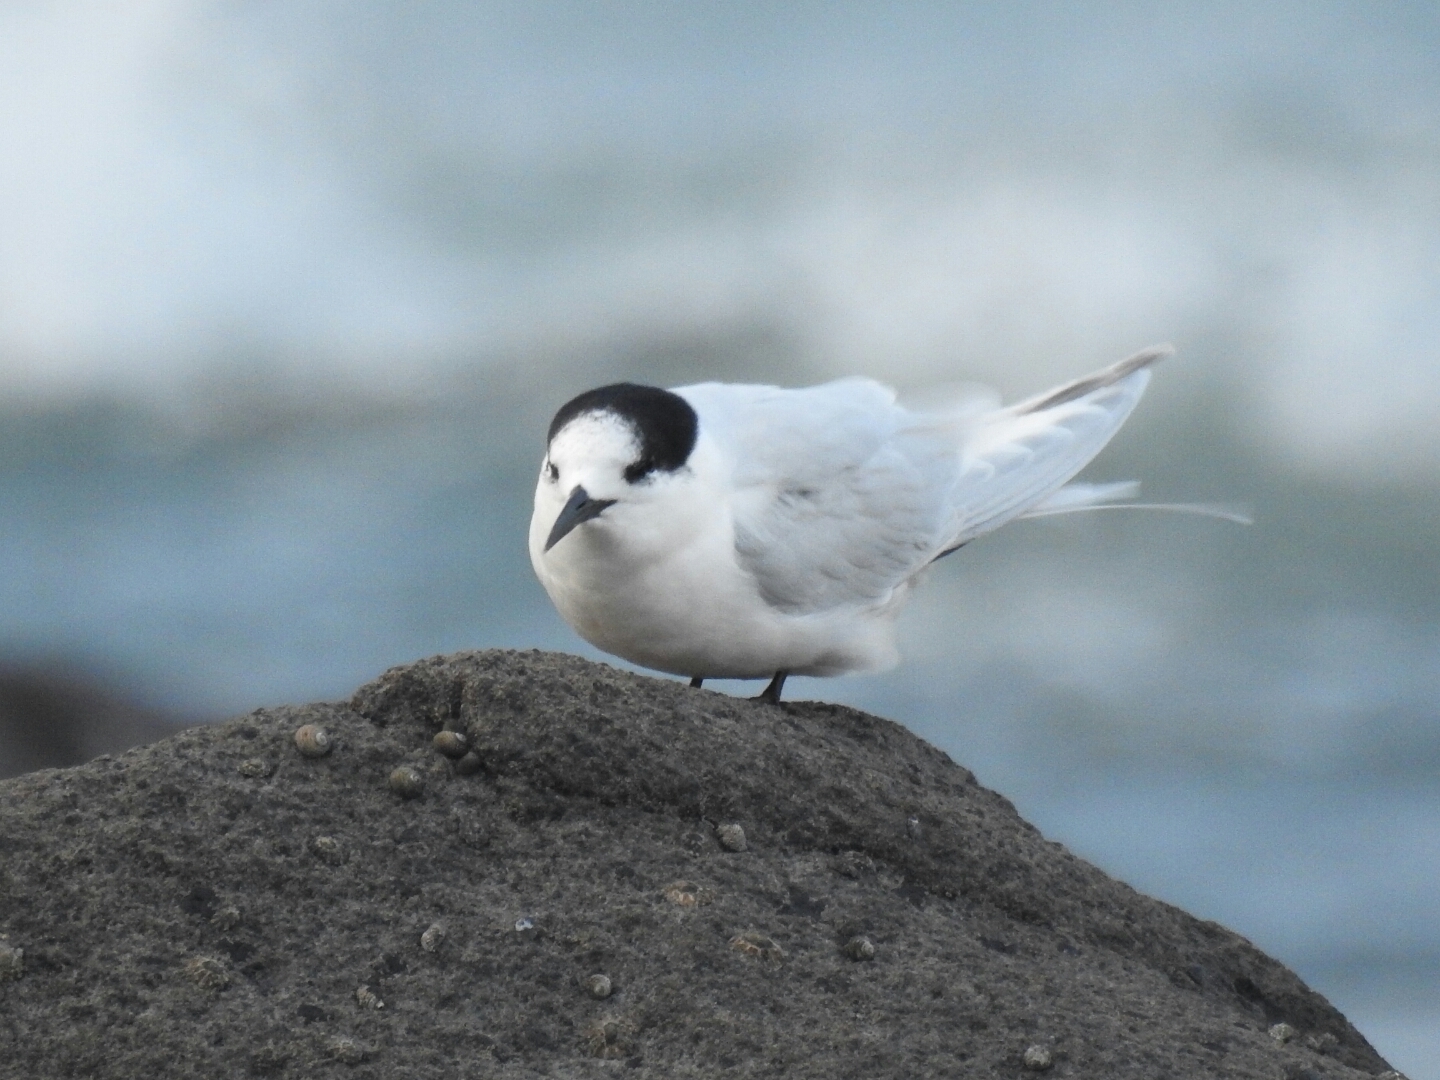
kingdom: Animalia
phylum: Chordata
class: Aves
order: Charadriiformes
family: Laridae
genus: Sterna
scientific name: Sterna striata
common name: White-fronted tern
